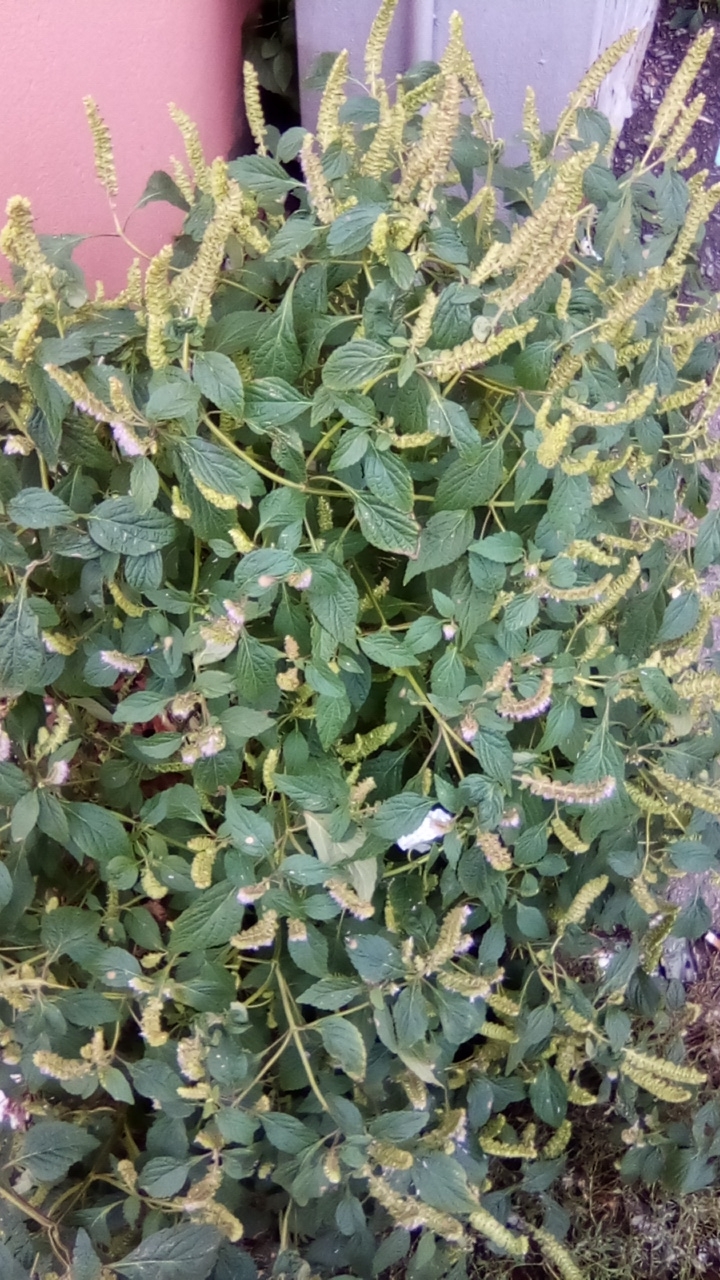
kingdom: Plantae
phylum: Tracheophyta
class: Magnoliopsida
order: Lamiales
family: Lamiaceae
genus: Elsholtzia
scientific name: Elsholtzia ciliata
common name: Ciliate elsholtzia
